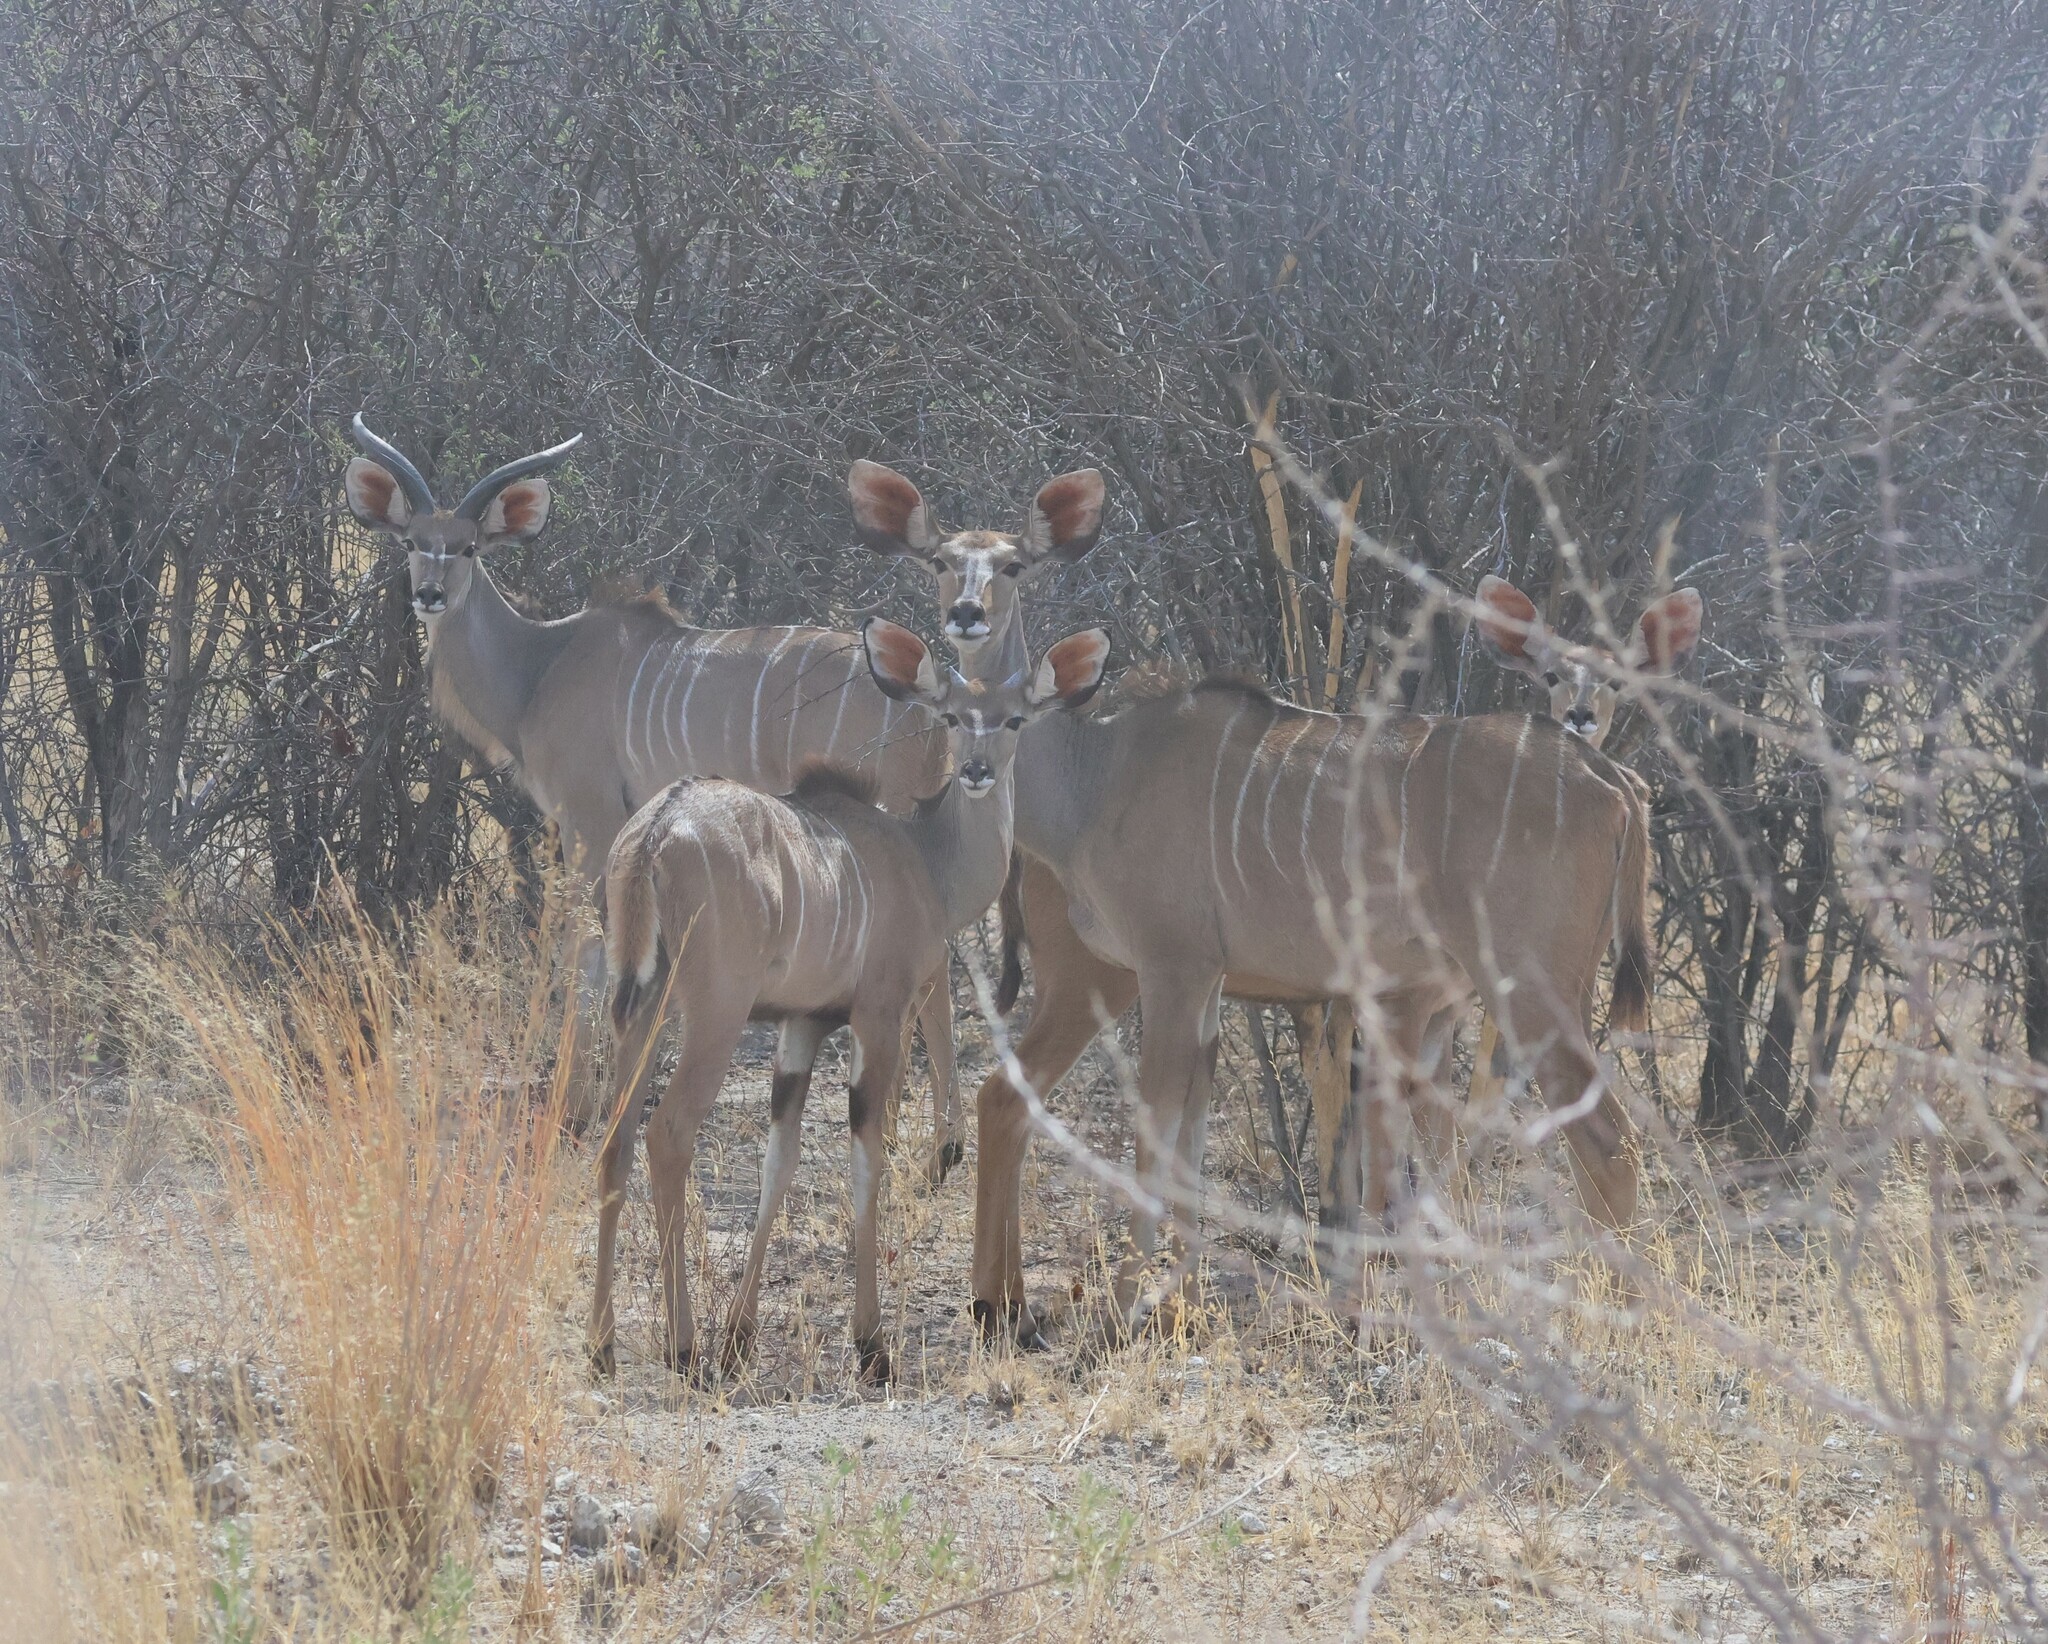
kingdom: Animalia
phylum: Chordata
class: Mammalia
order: Artiodactyla
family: Bovidae
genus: Tragelaphus
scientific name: Tragelaphus strepsiceros
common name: Greater kudu
